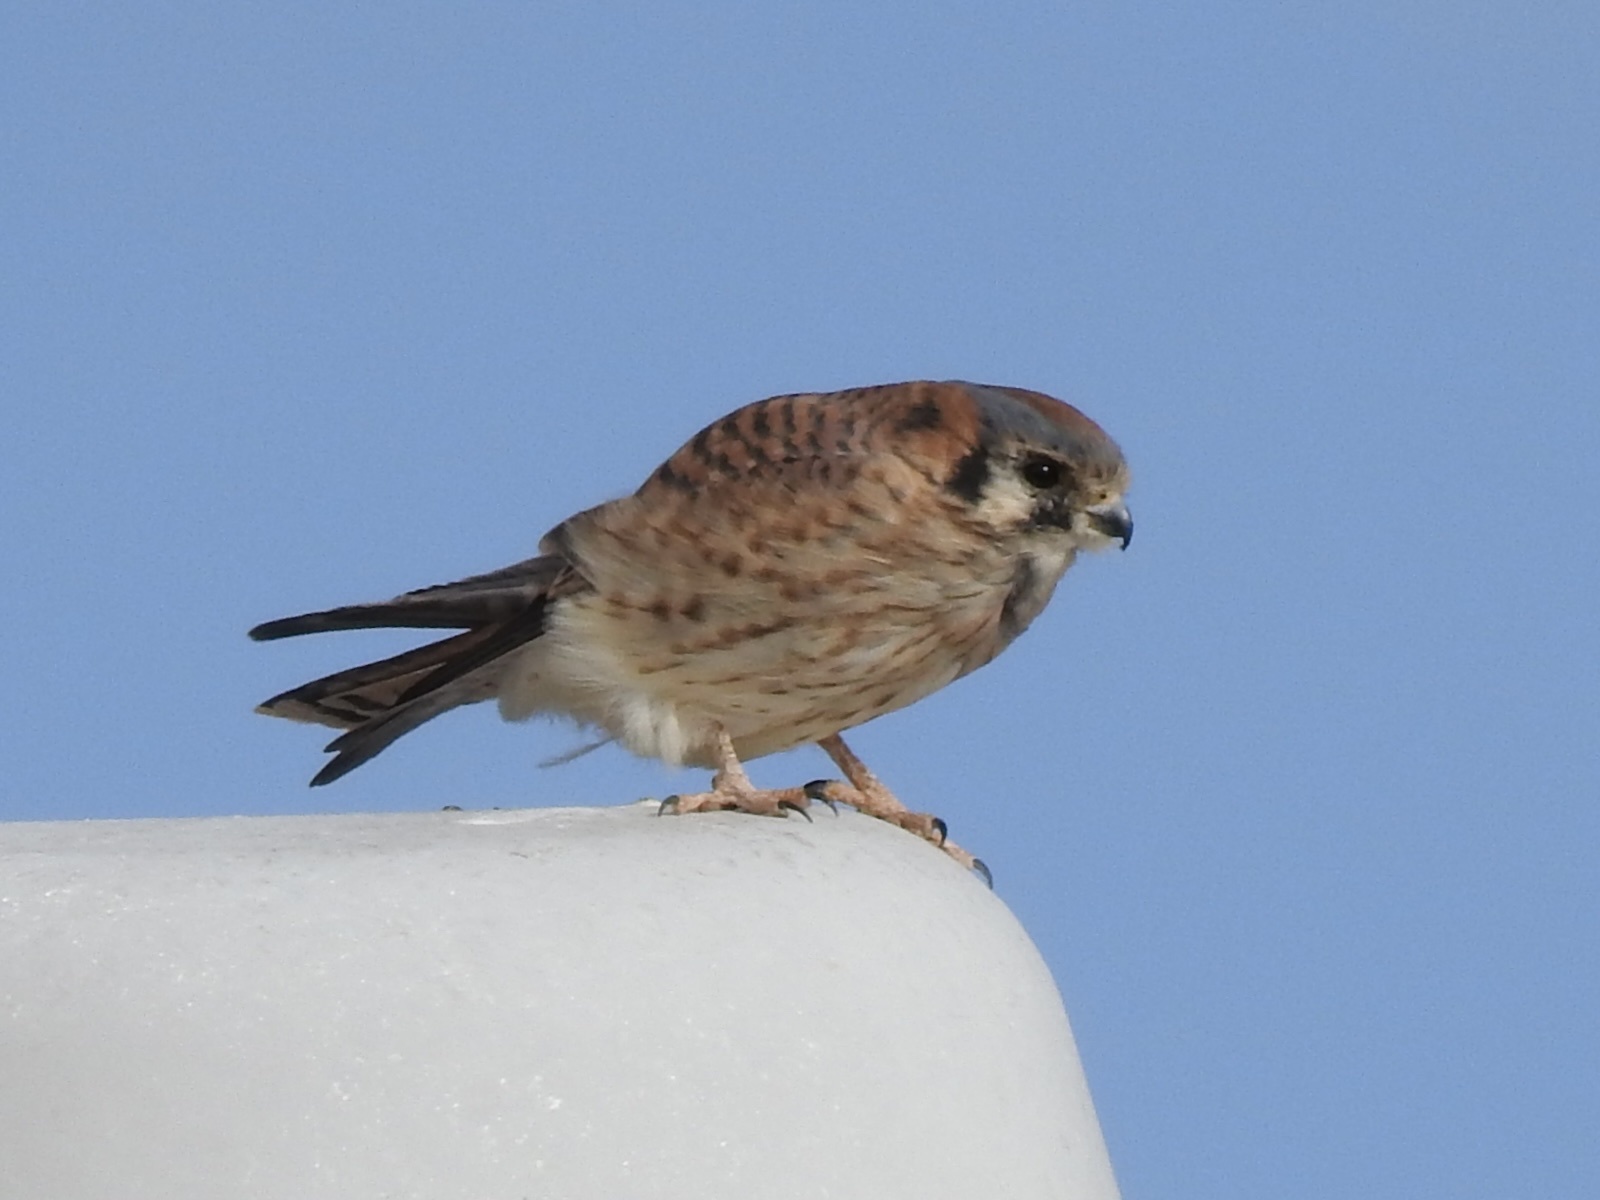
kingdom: Animalia
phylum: Chordata
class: Aves
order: Falconiformes
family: Falconidae
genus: Falco
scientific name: Falco sparverius
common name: American kestrel
